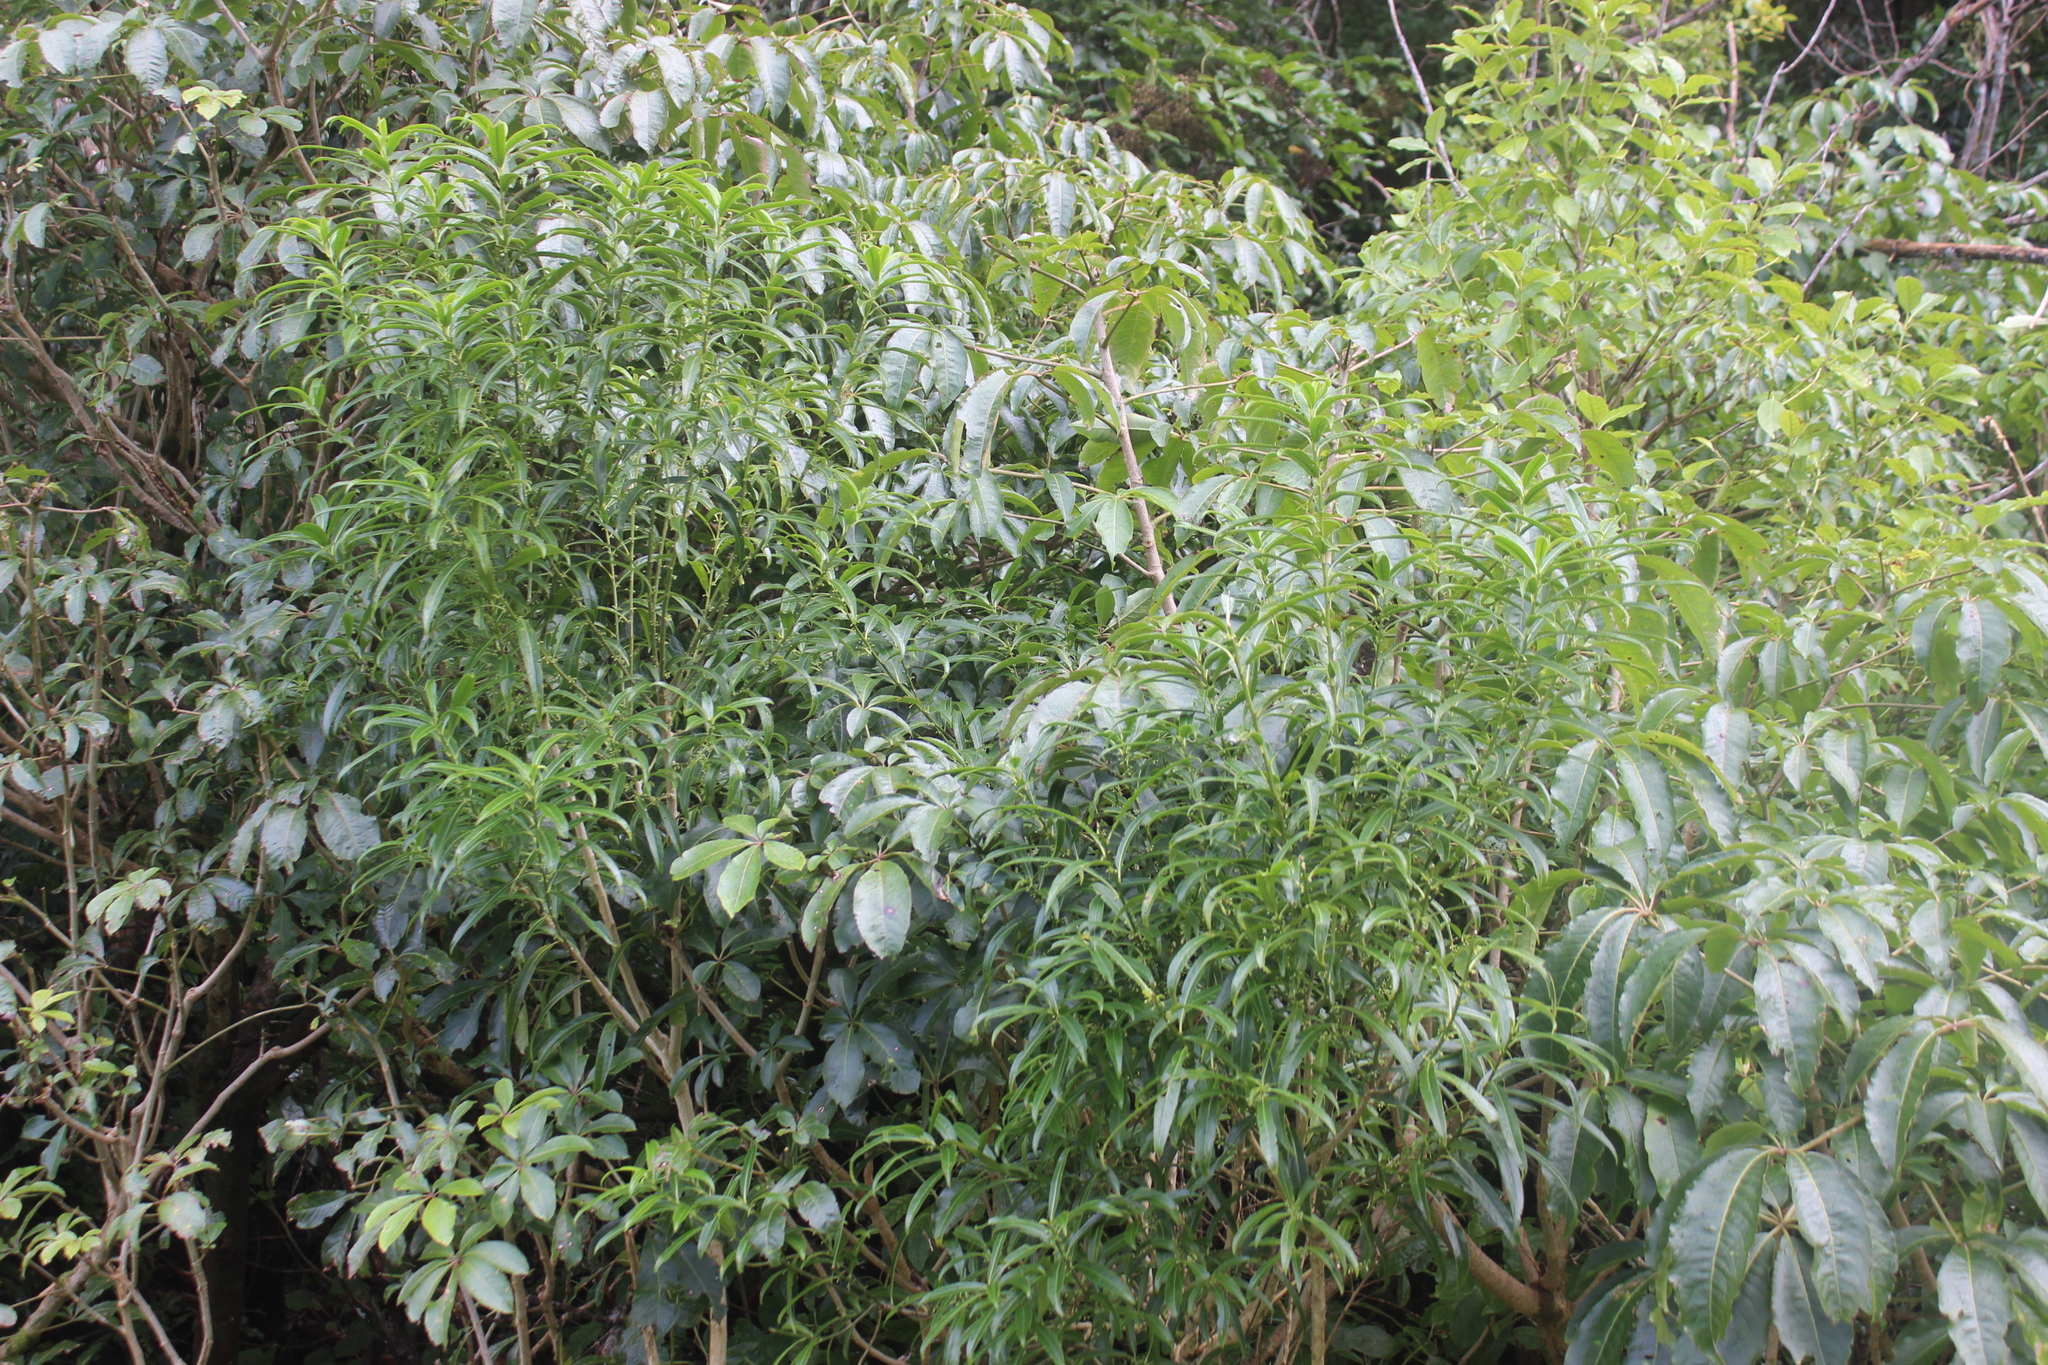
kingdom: Plantae
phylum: Tracheophyta
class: Magnoliopsida
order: Malpighiales
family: Violaceae
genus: Melicytus
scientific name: Melicytus lanceolatus
